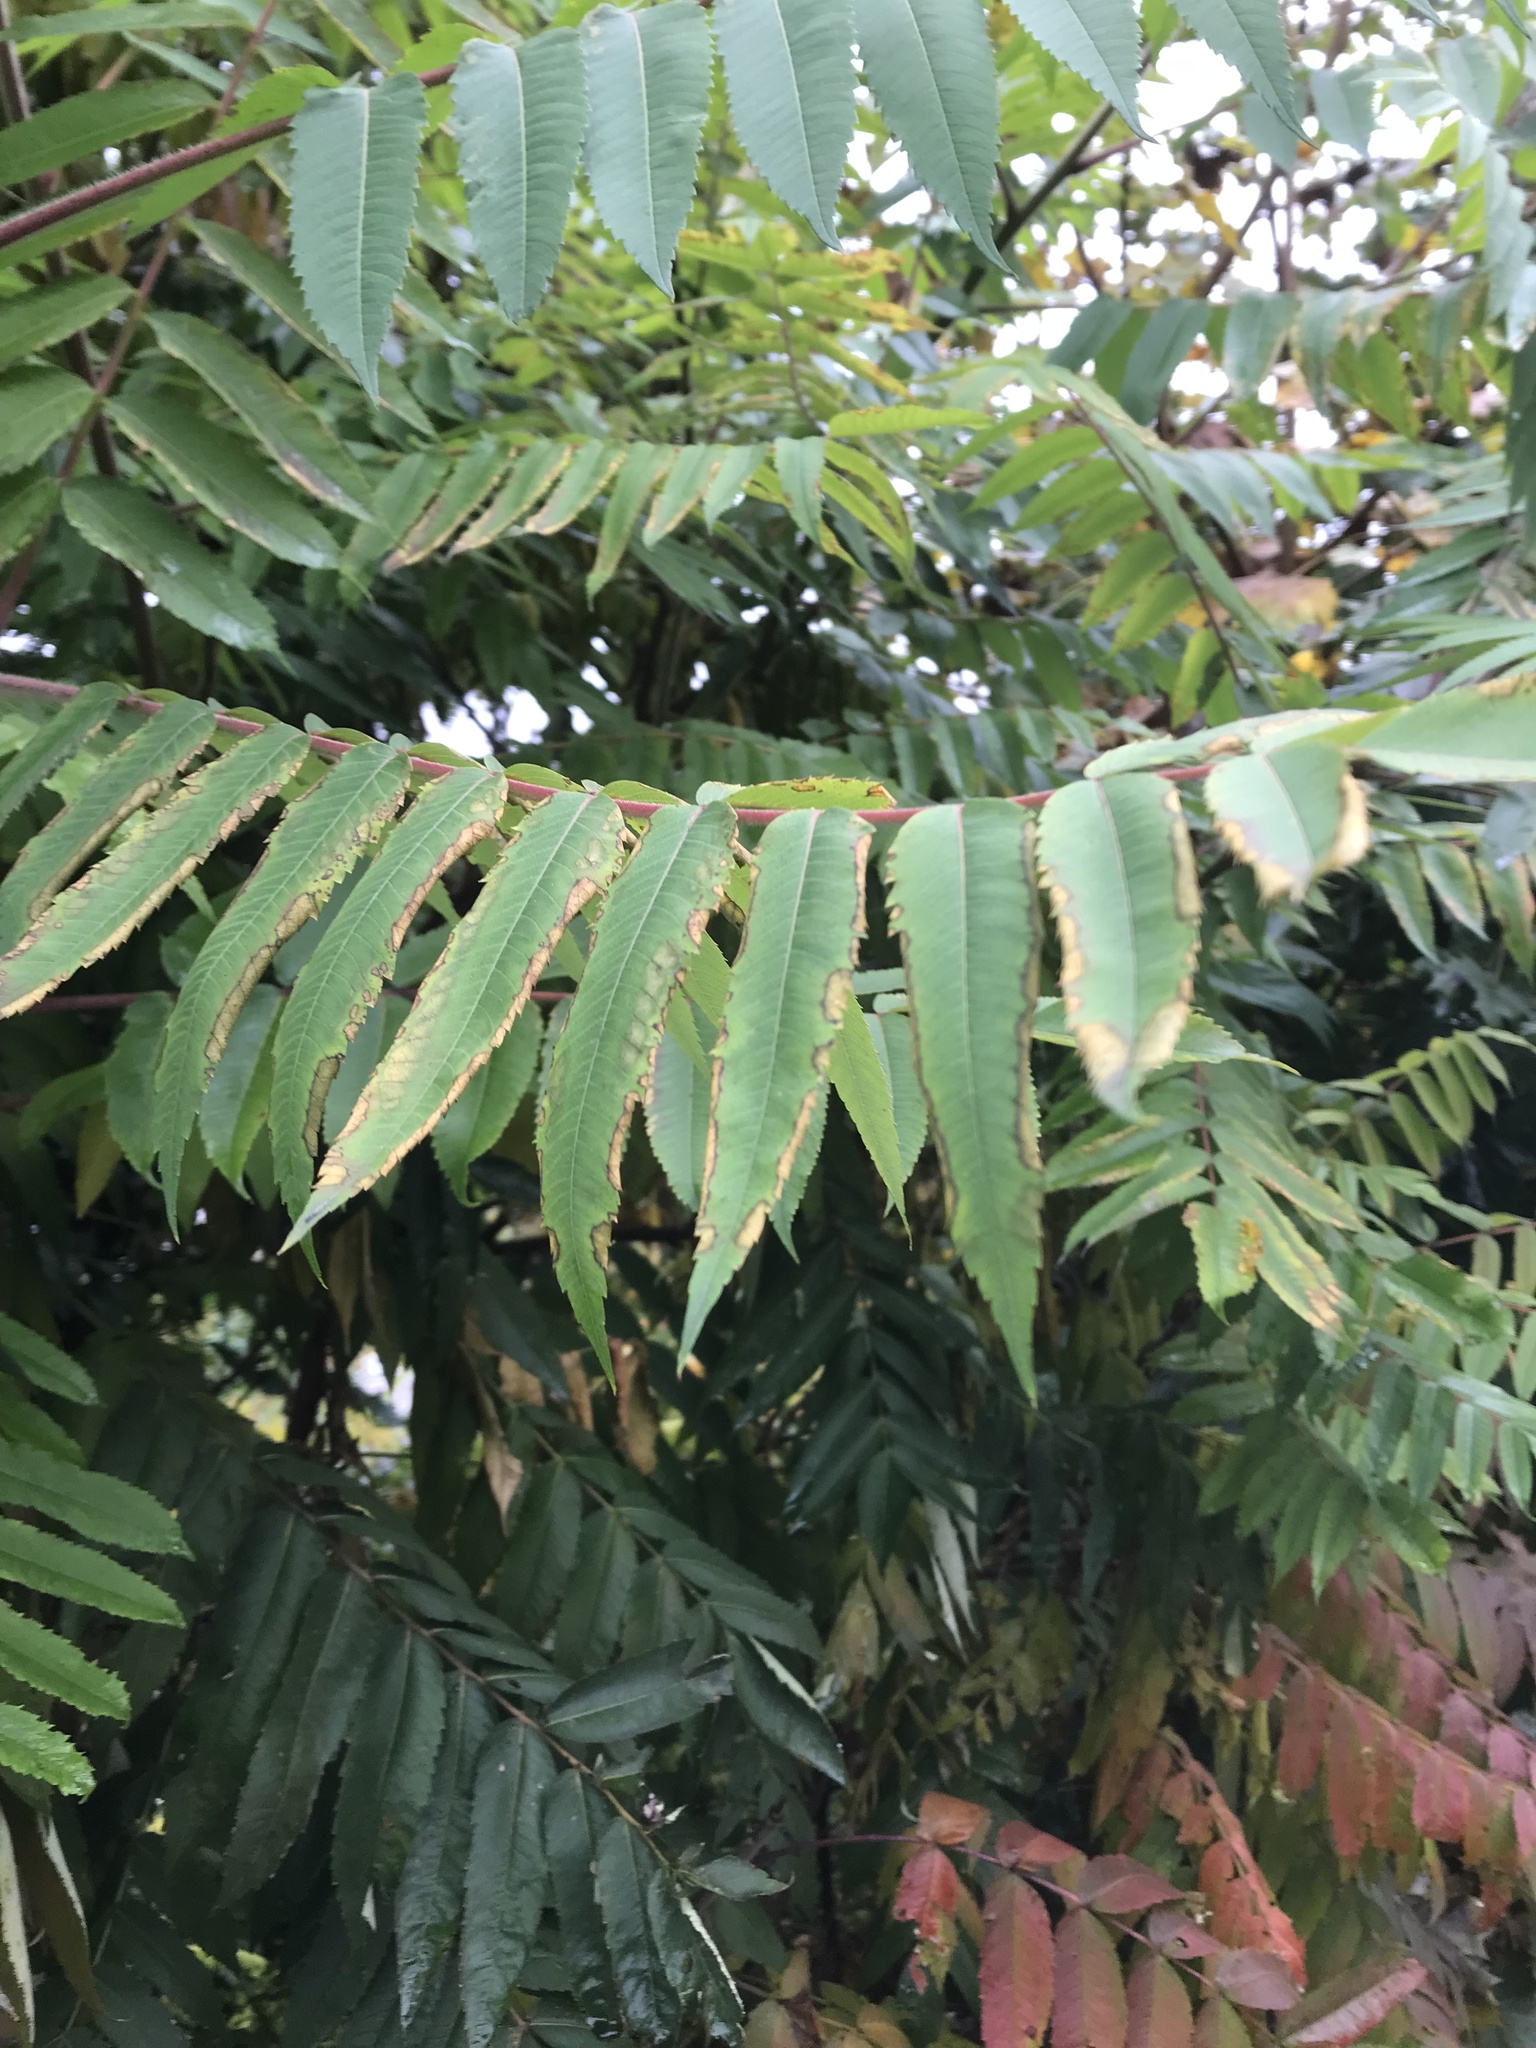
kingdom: Plantae
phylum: Tracheophyta
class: Magnoliopsida
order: Sapindales
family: Anacardiaceae
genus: Rhus
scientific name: Rhus typhina
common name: Staghorn sumac
